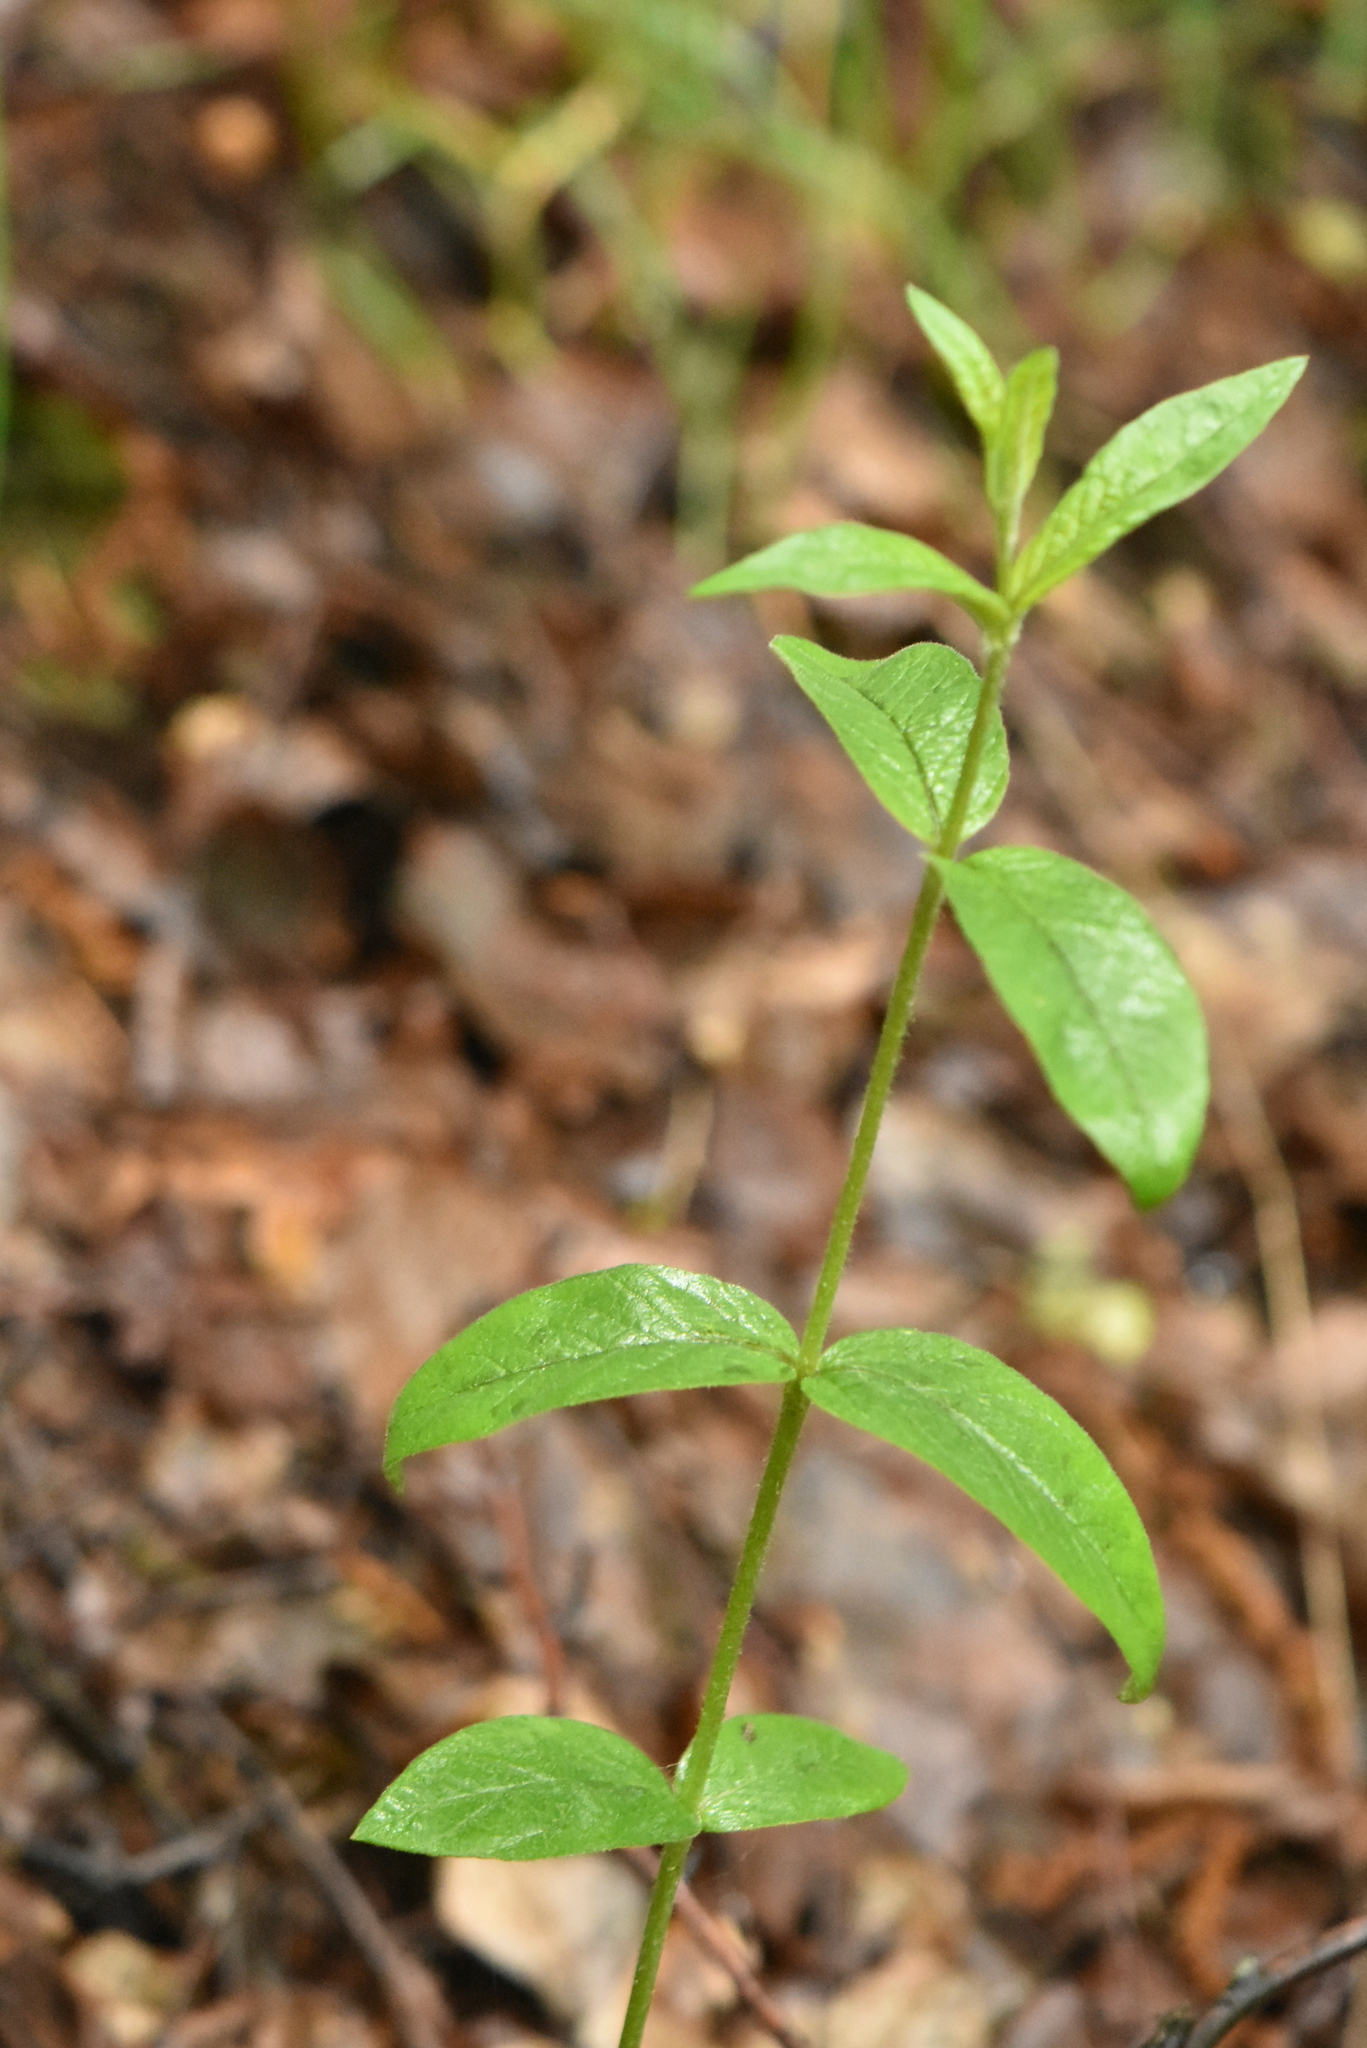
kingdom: Plantae
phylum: Tracheophyta
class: Magnoliopsida
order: Ericales
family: Primulaceae
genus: Lysimachia
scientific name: Lysimachia vulgaris
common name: Yellow loosestrife
